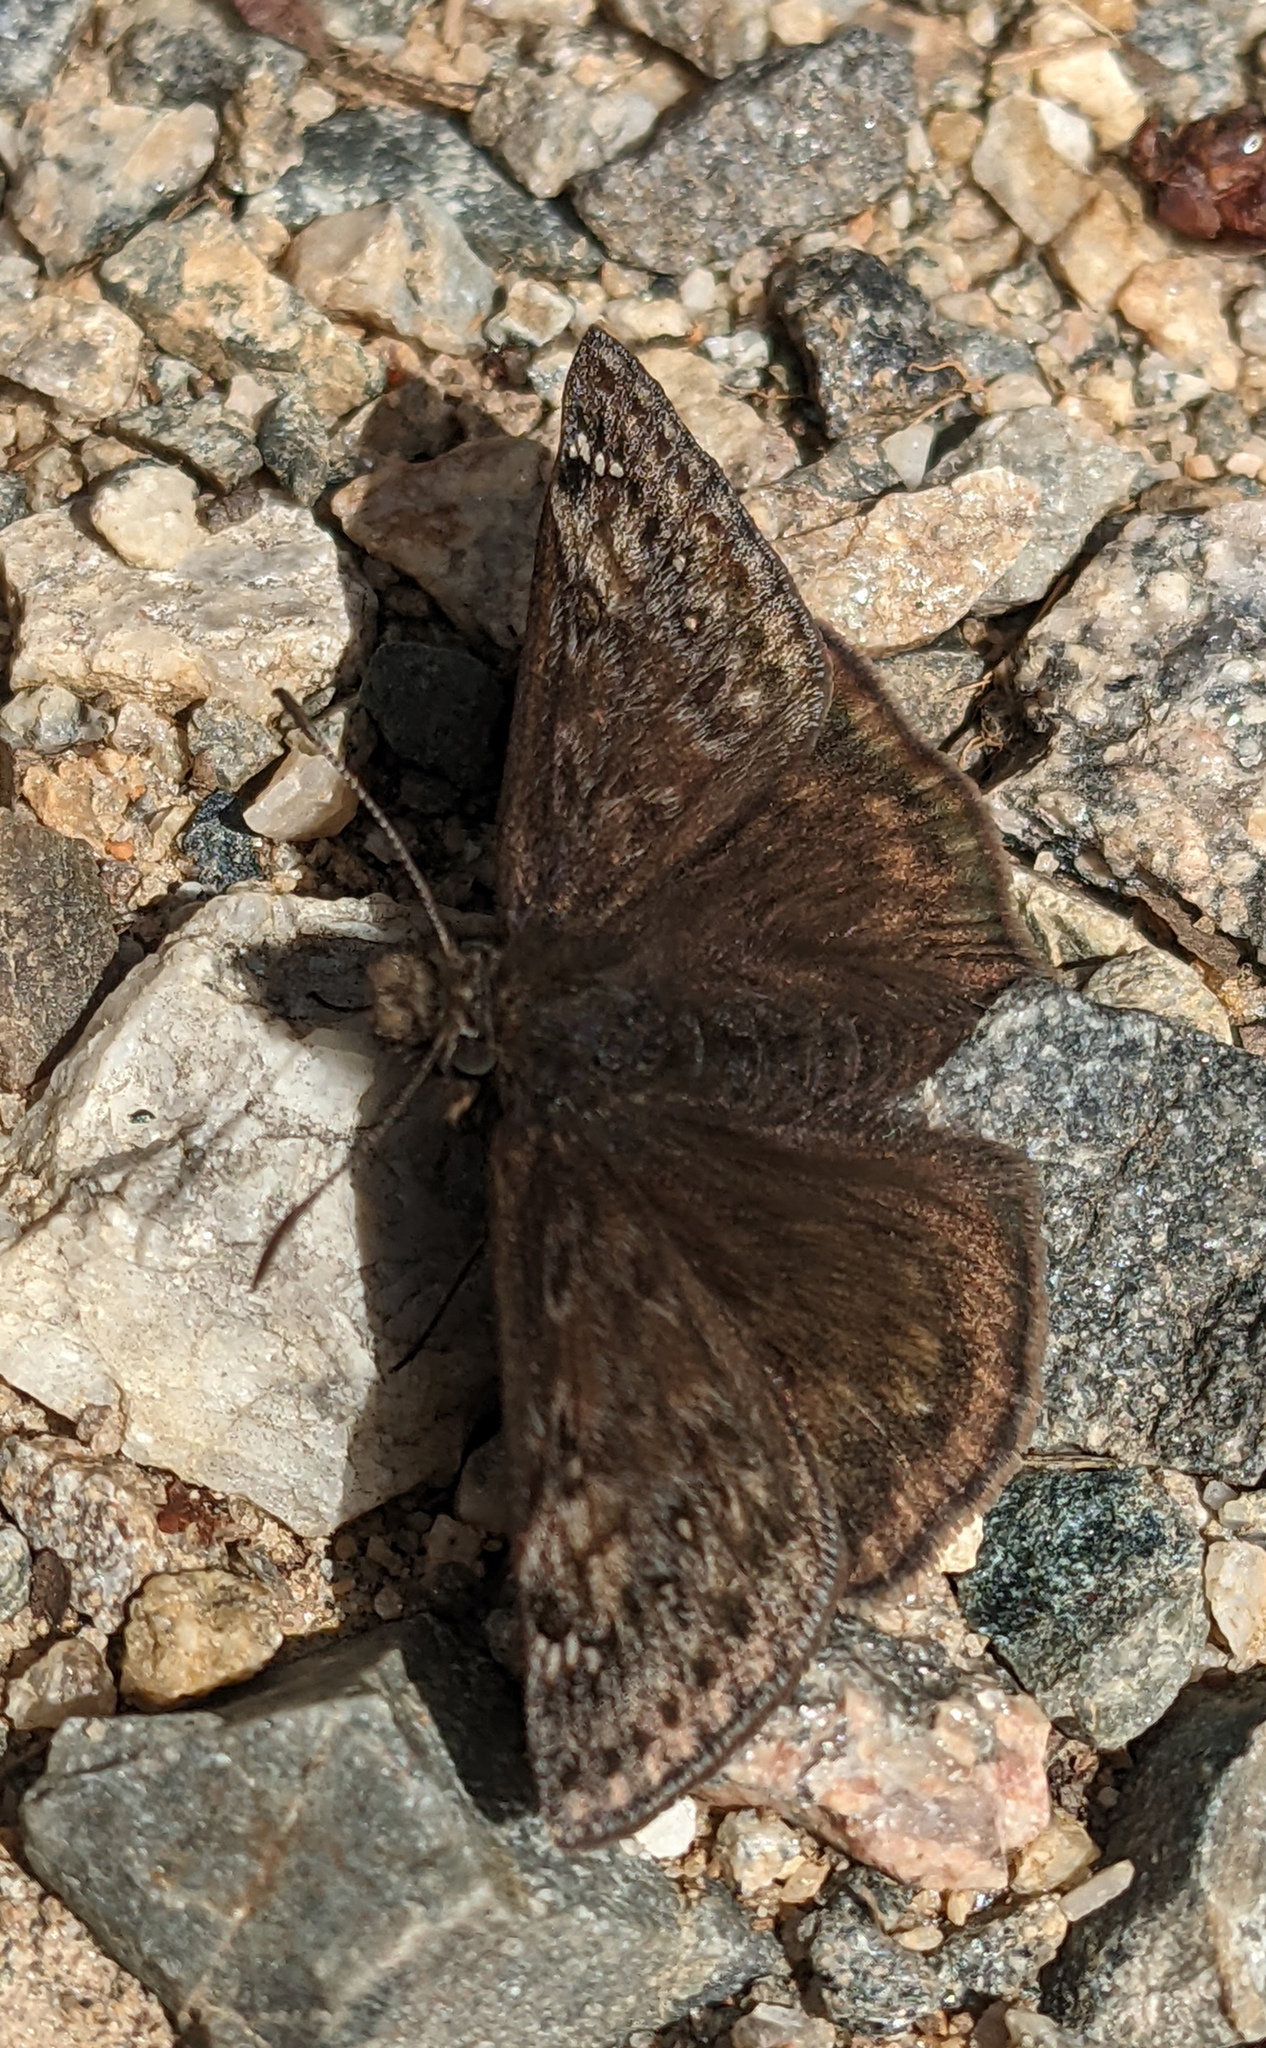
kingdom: Animalia
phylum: Arthropoda
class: Insecta
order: Lepidoptera
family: Hesperiidae
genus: Erynnis
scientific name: Erynnis juvenalis
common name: Juvenal's duskywing
